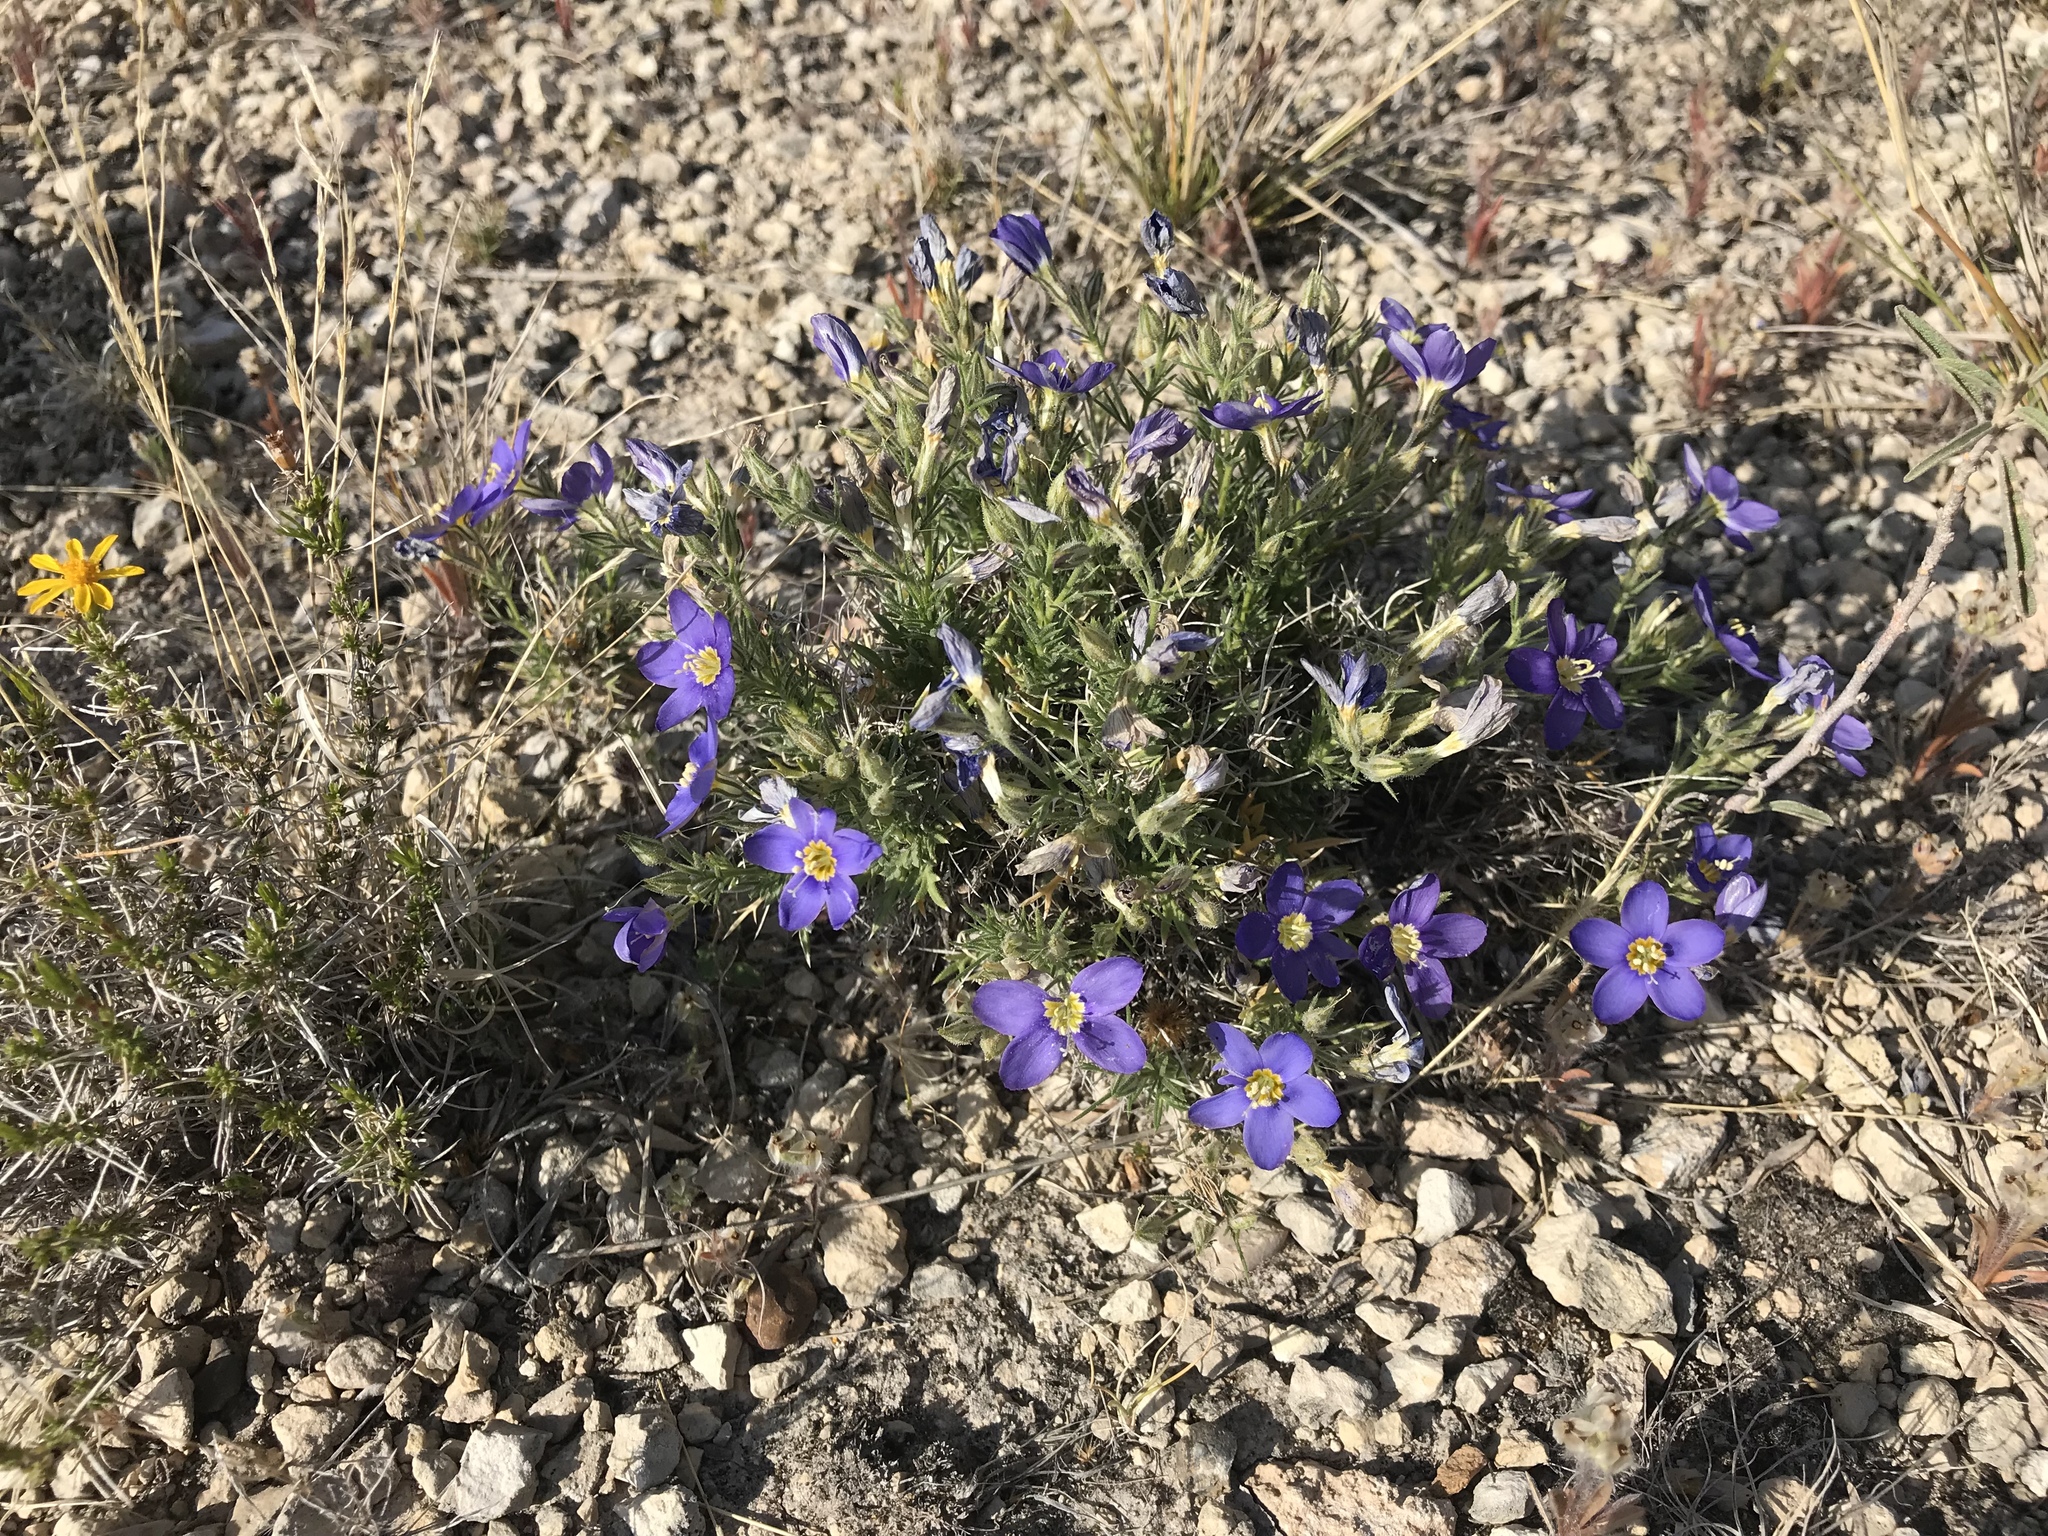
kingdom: Plantae
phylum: Tracheophyta
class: Magnoliopsida
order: Ericales
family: Polemoniaceae
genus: Giliastrum
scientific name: Giliastrum acerosum
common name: Bluebowls
